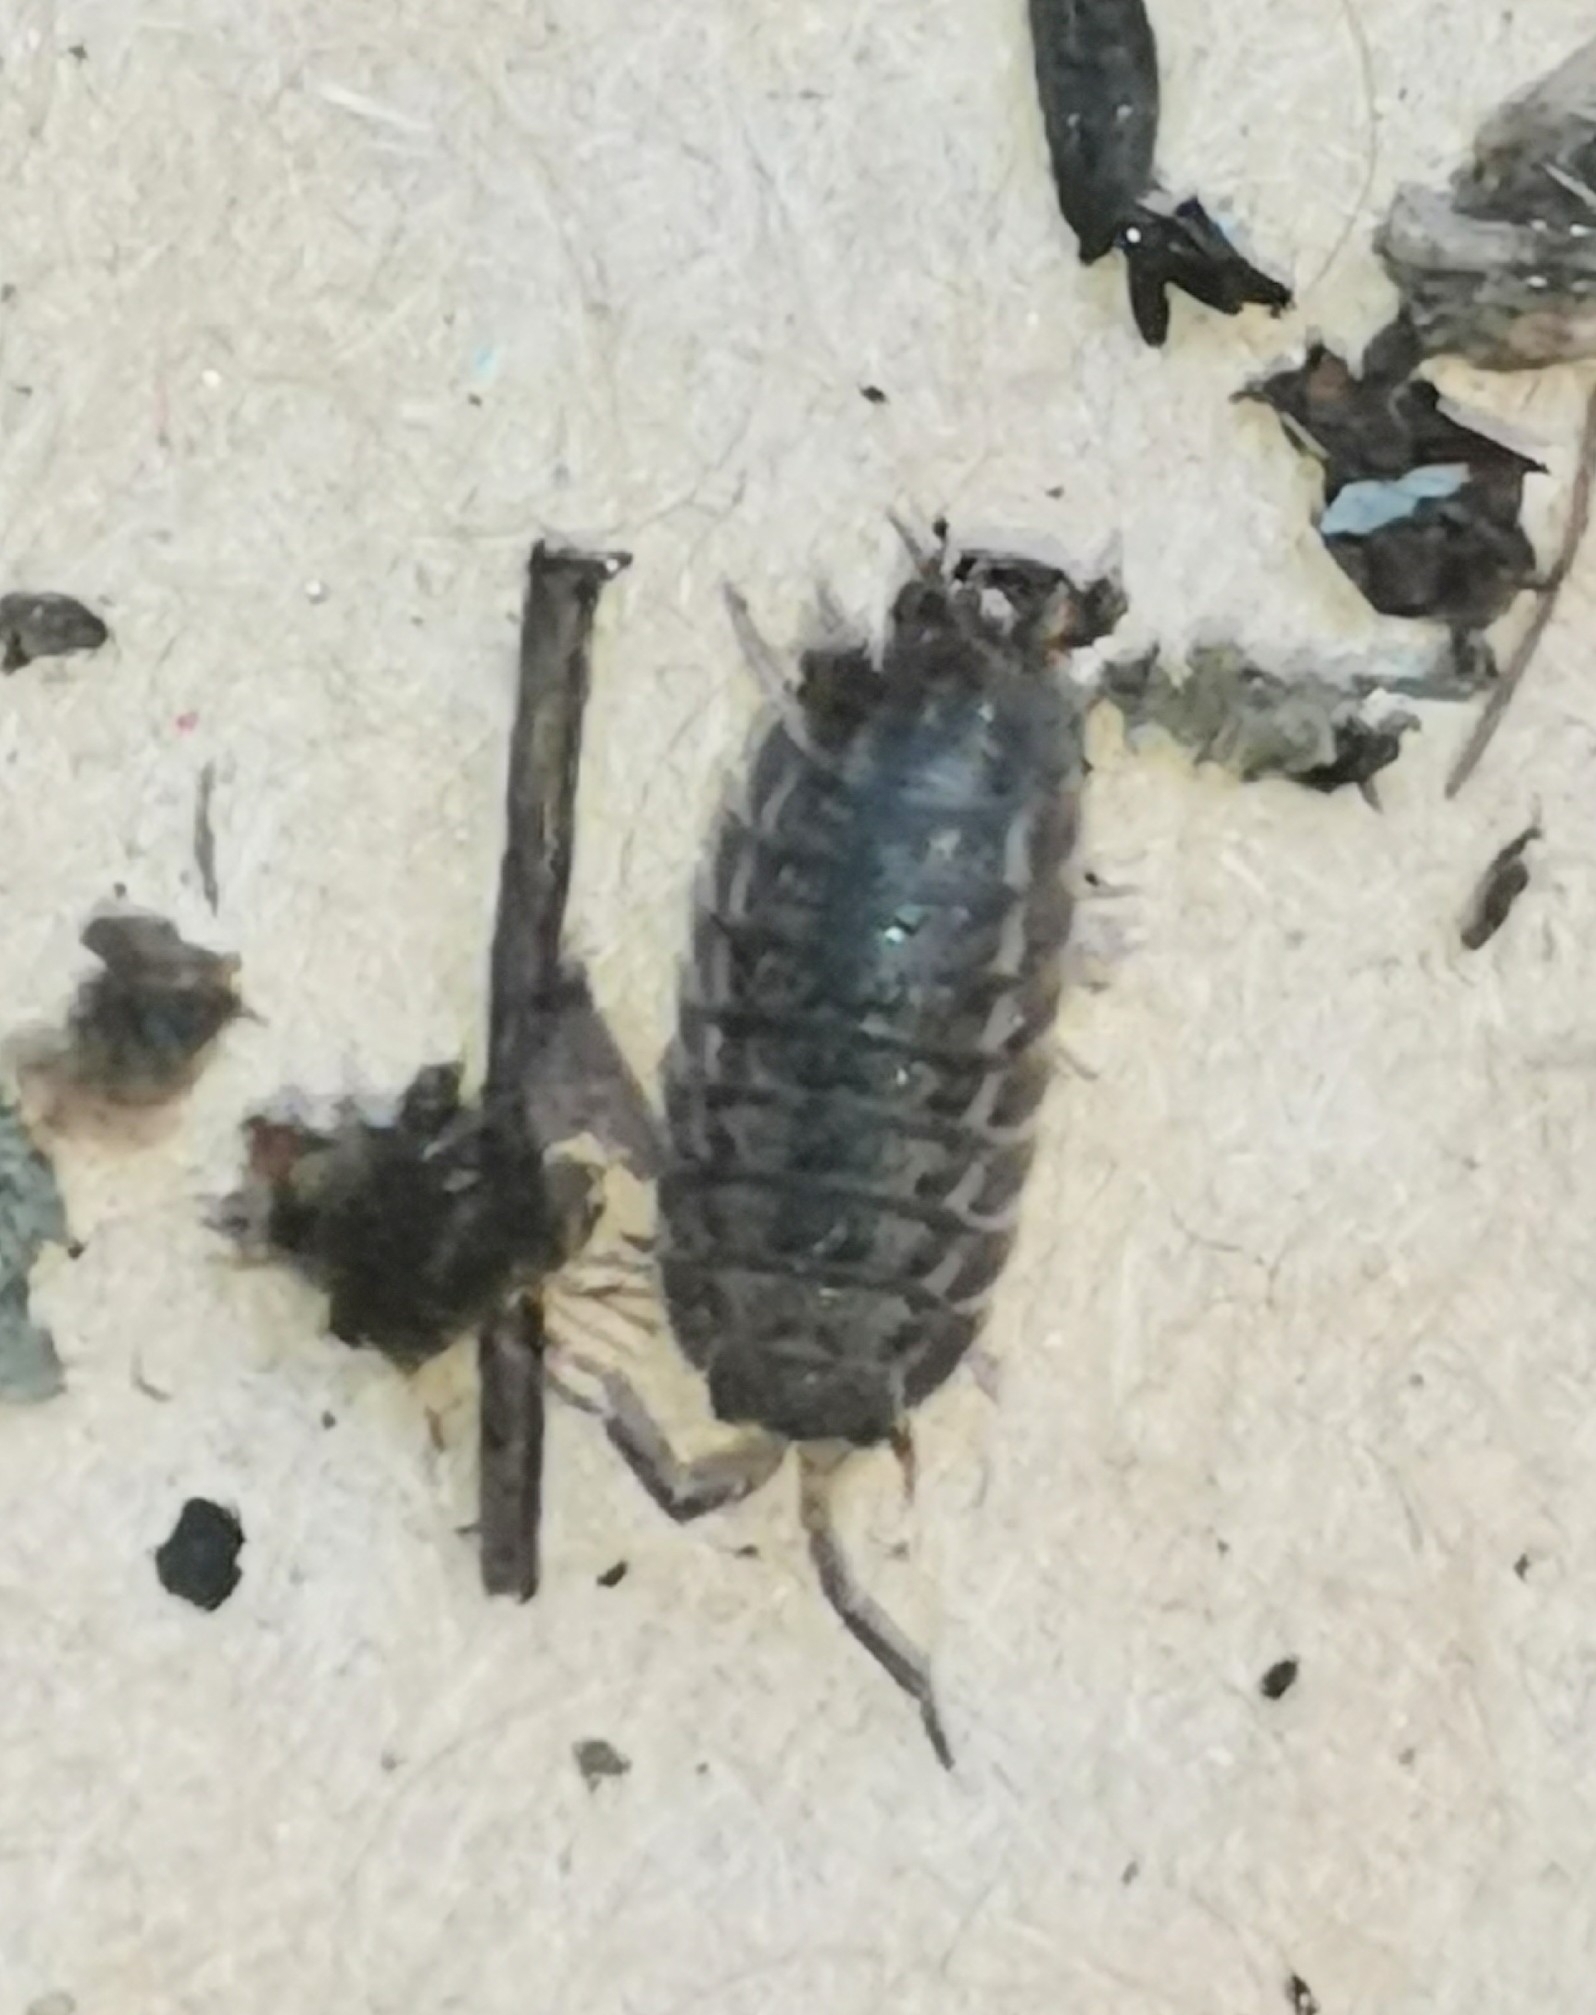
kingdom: Animalia
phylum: Arthropoda
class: Malacostraca
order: Isopoda
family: Trachelipodidae
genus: Trachelipus
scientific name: Trachelipus rathkii
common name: Isopod
